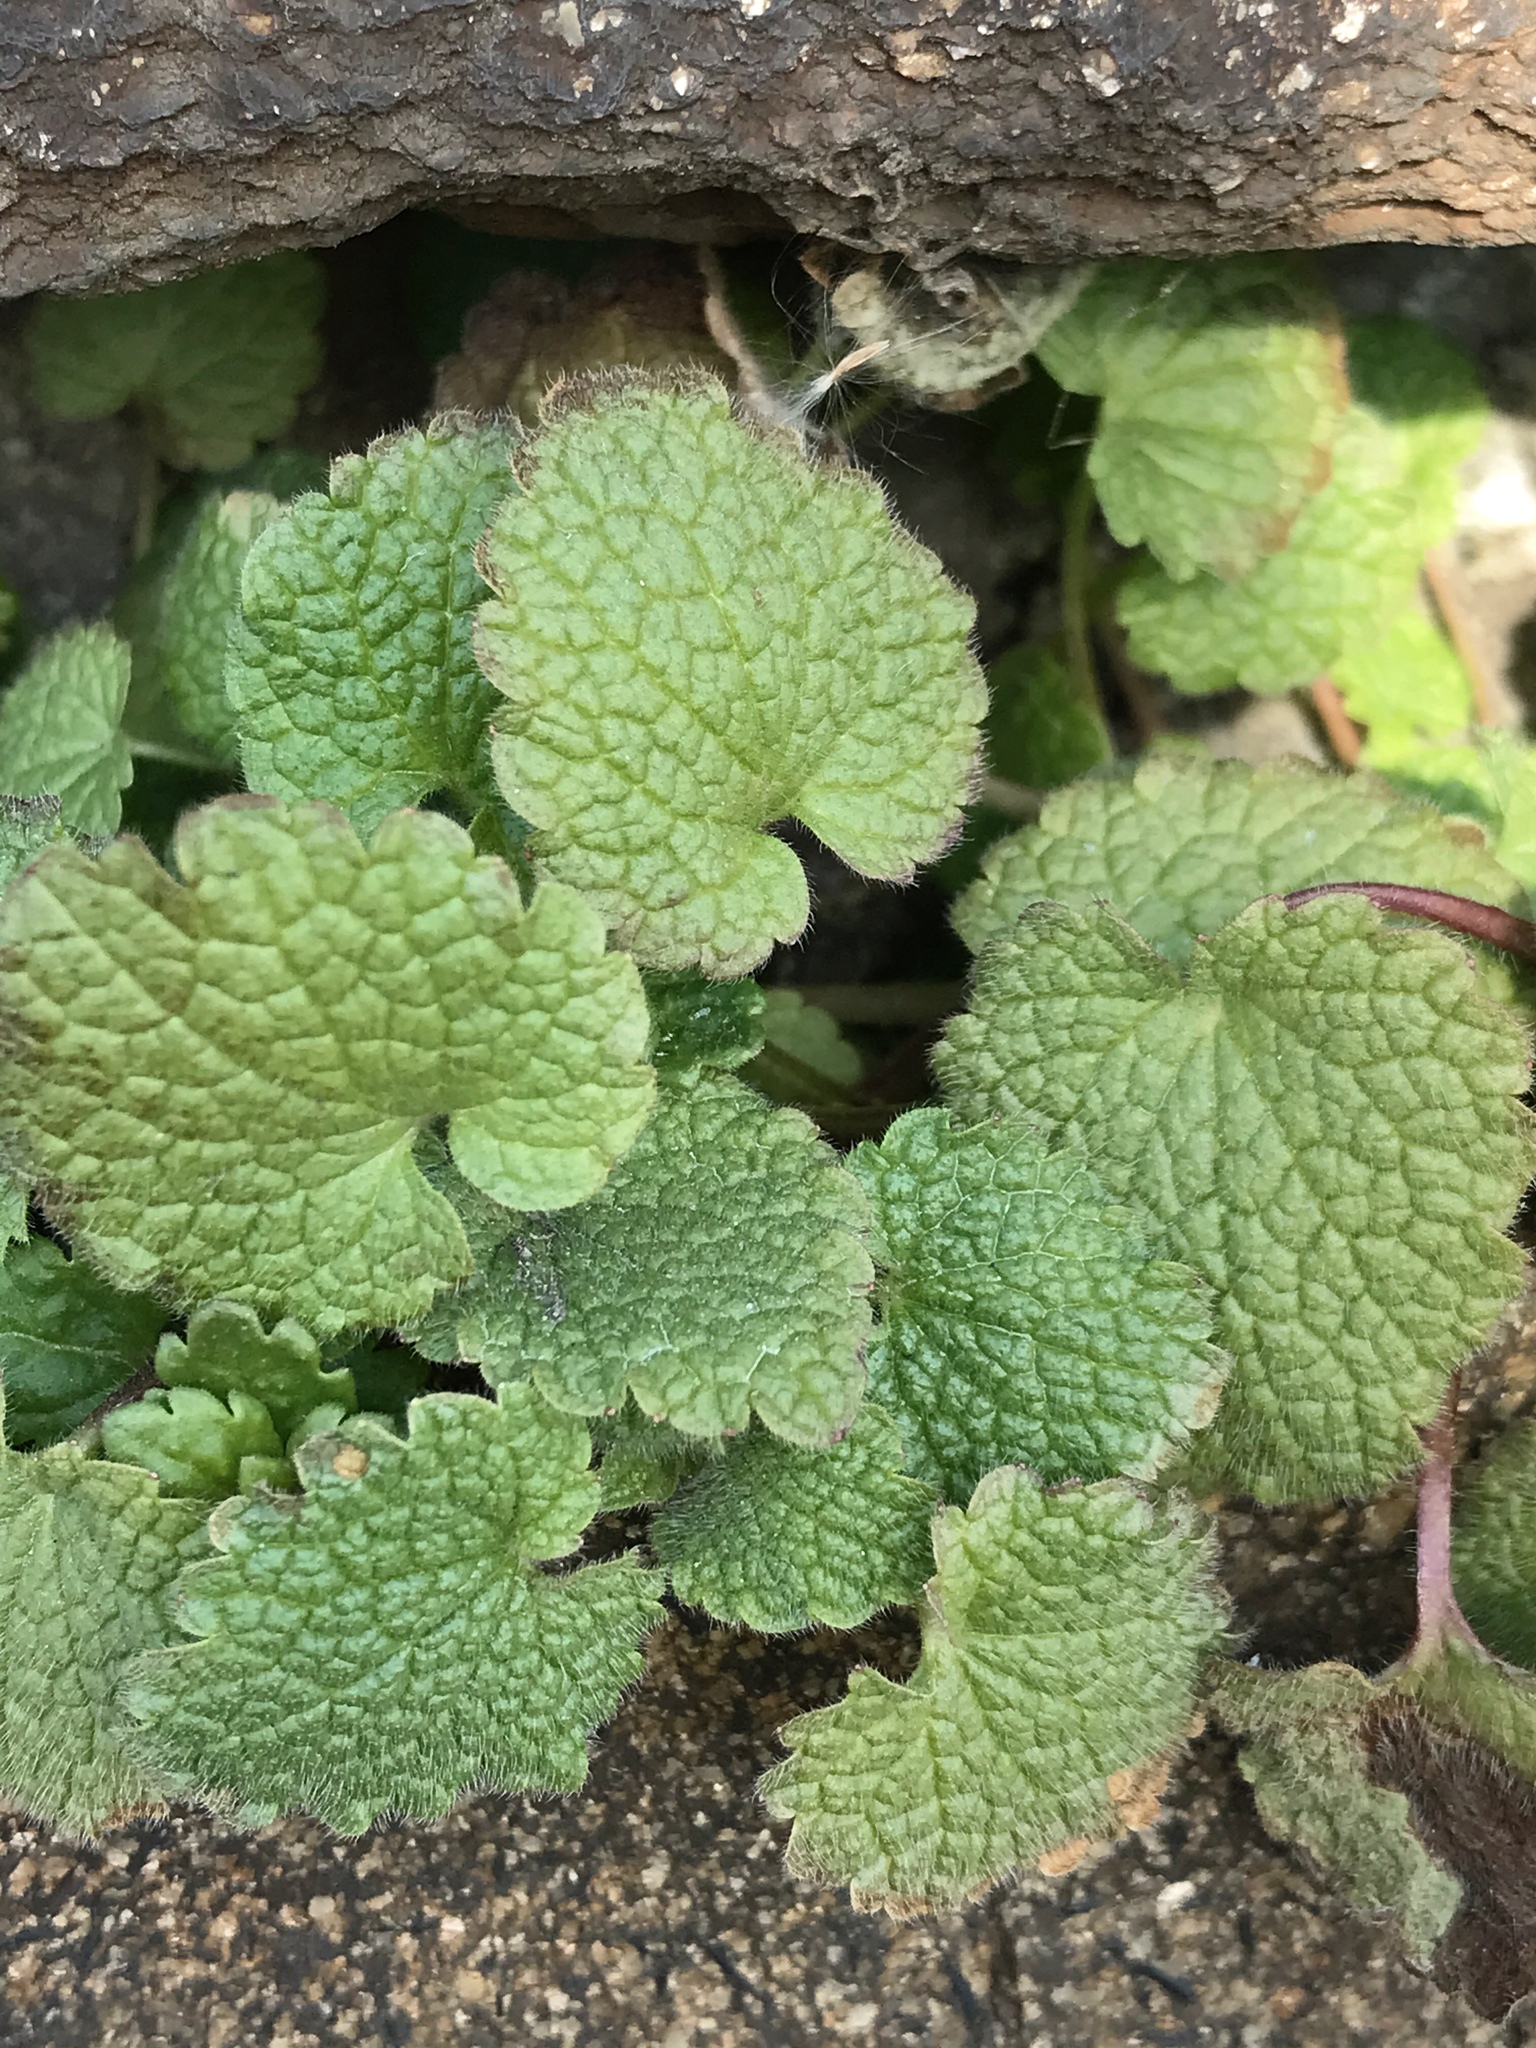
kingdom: Plantae
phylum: Tracheophyta
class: Magnoliopsida
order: Lamiales
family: Lamiaceae
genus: Lamium
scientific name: Lamium purpureum
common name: Red dead-nettle
